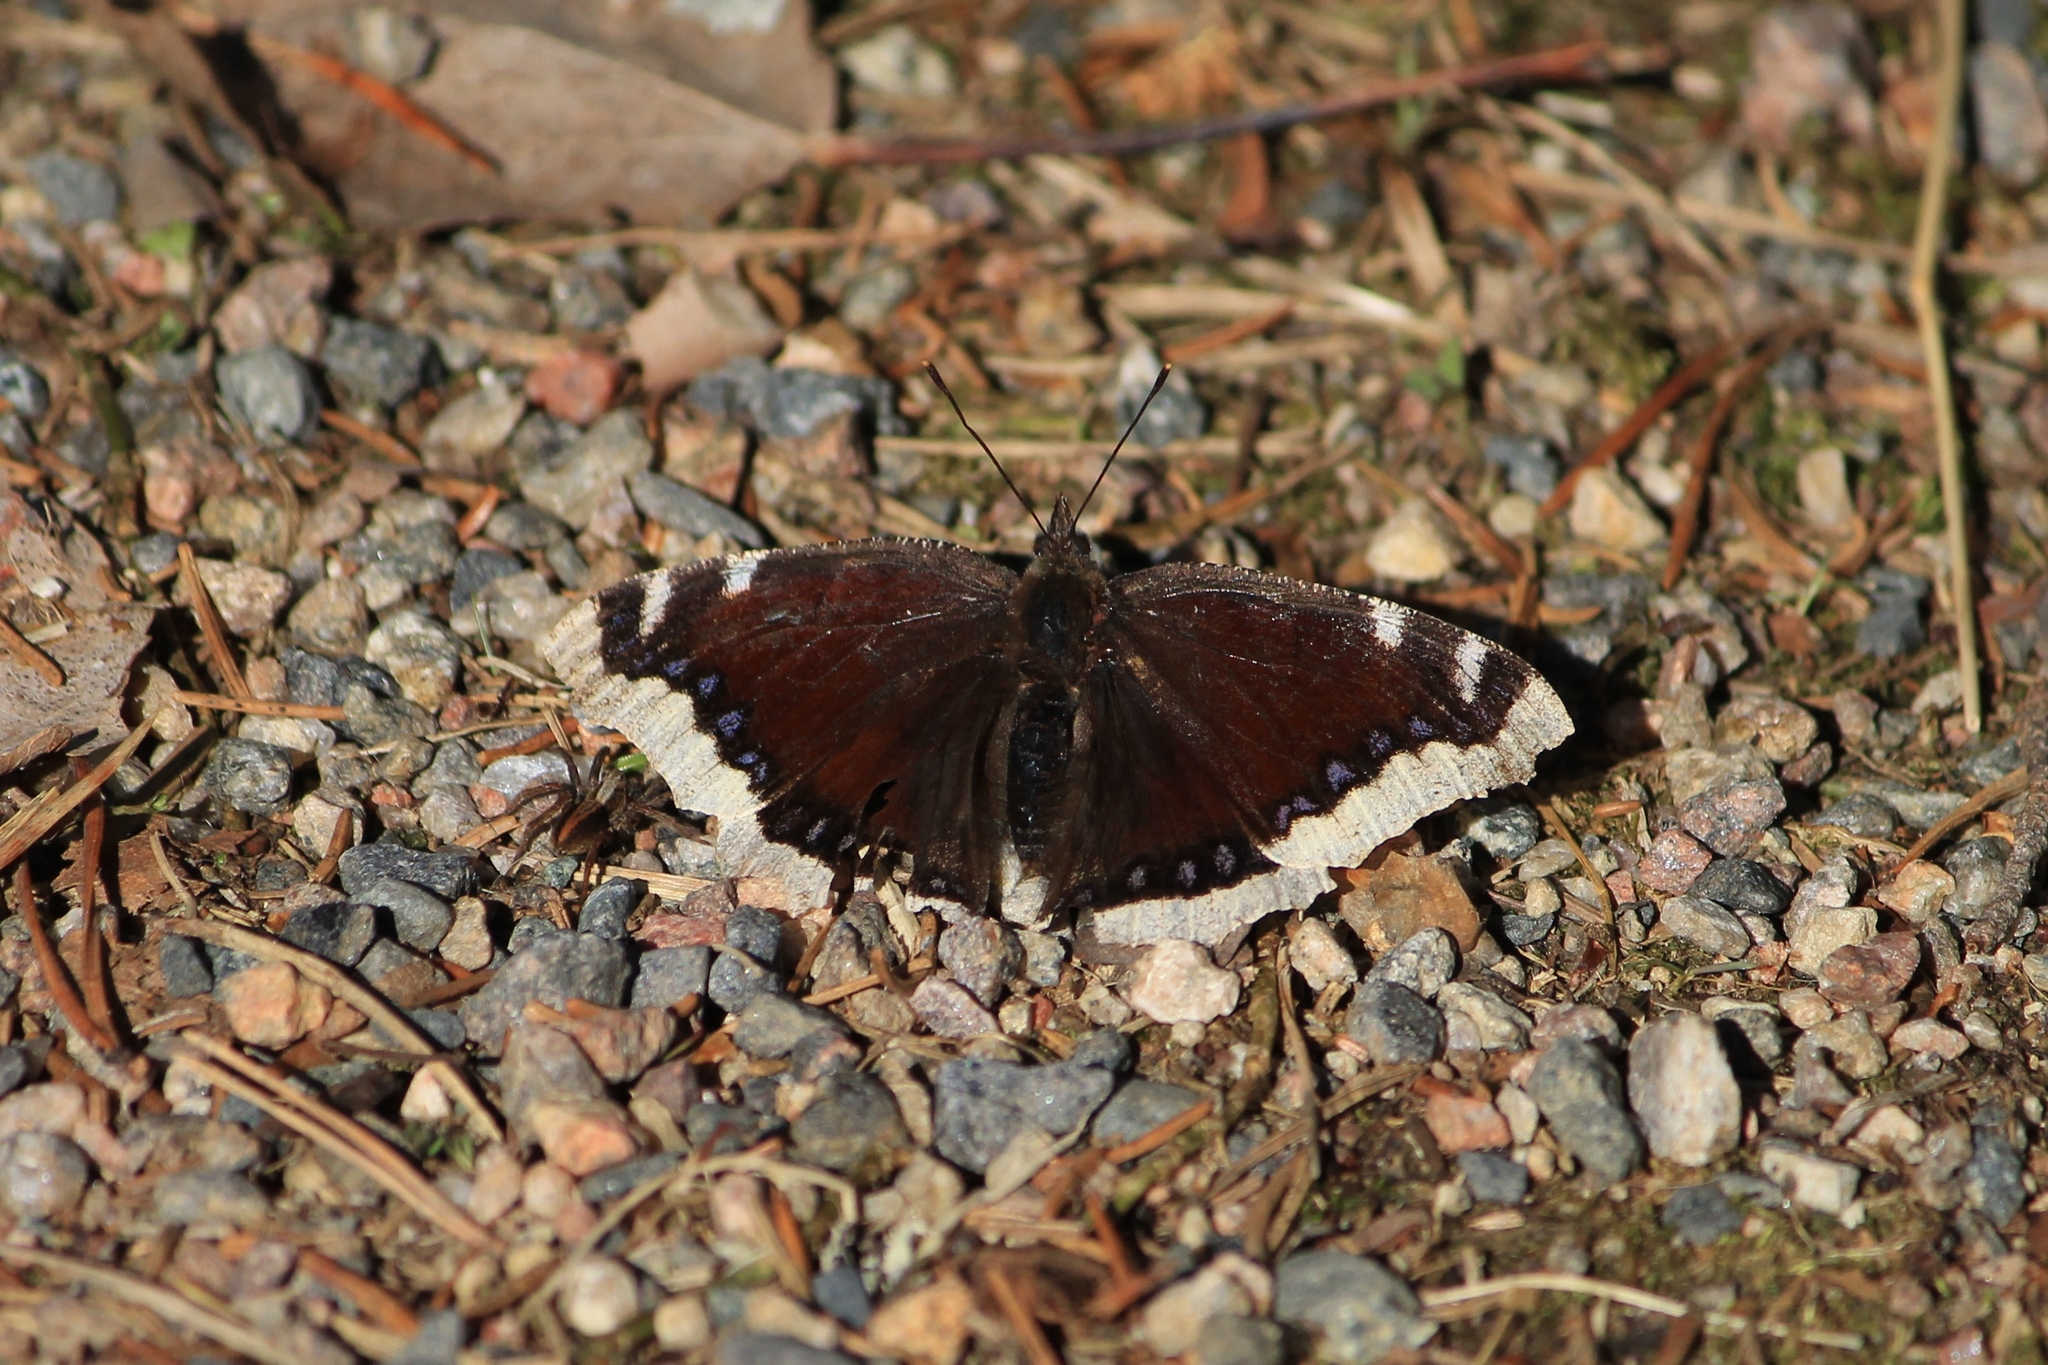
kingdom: Animalia
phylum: Arthropoda
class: Insecta
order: Lepidoptera
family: Nymphalidae
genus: Nymphalis
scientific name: Nymphalis antiopa
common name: Camberwell beauty
